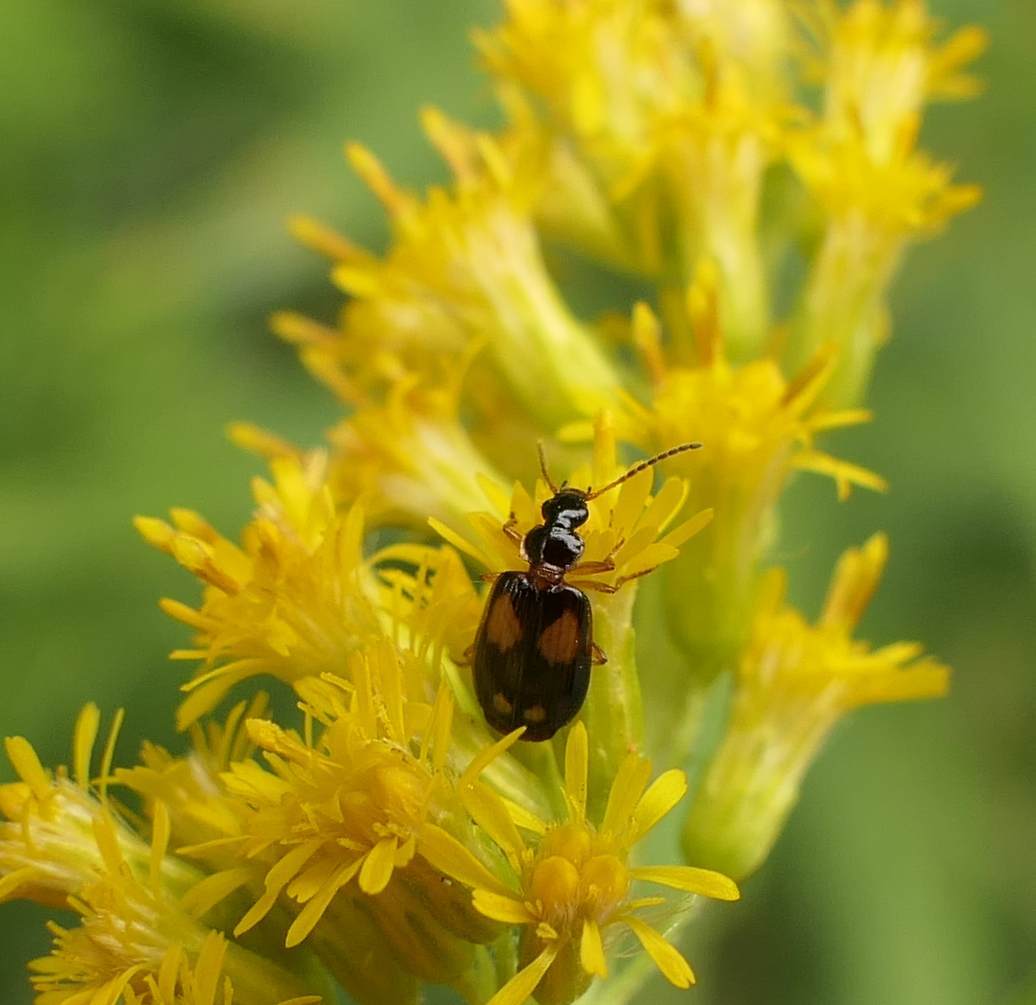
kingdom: Animalia
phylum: Arthropoda
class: Insecta
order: Coleoptera
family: Carabidae
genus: Lebia
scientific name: Lebia ornata
